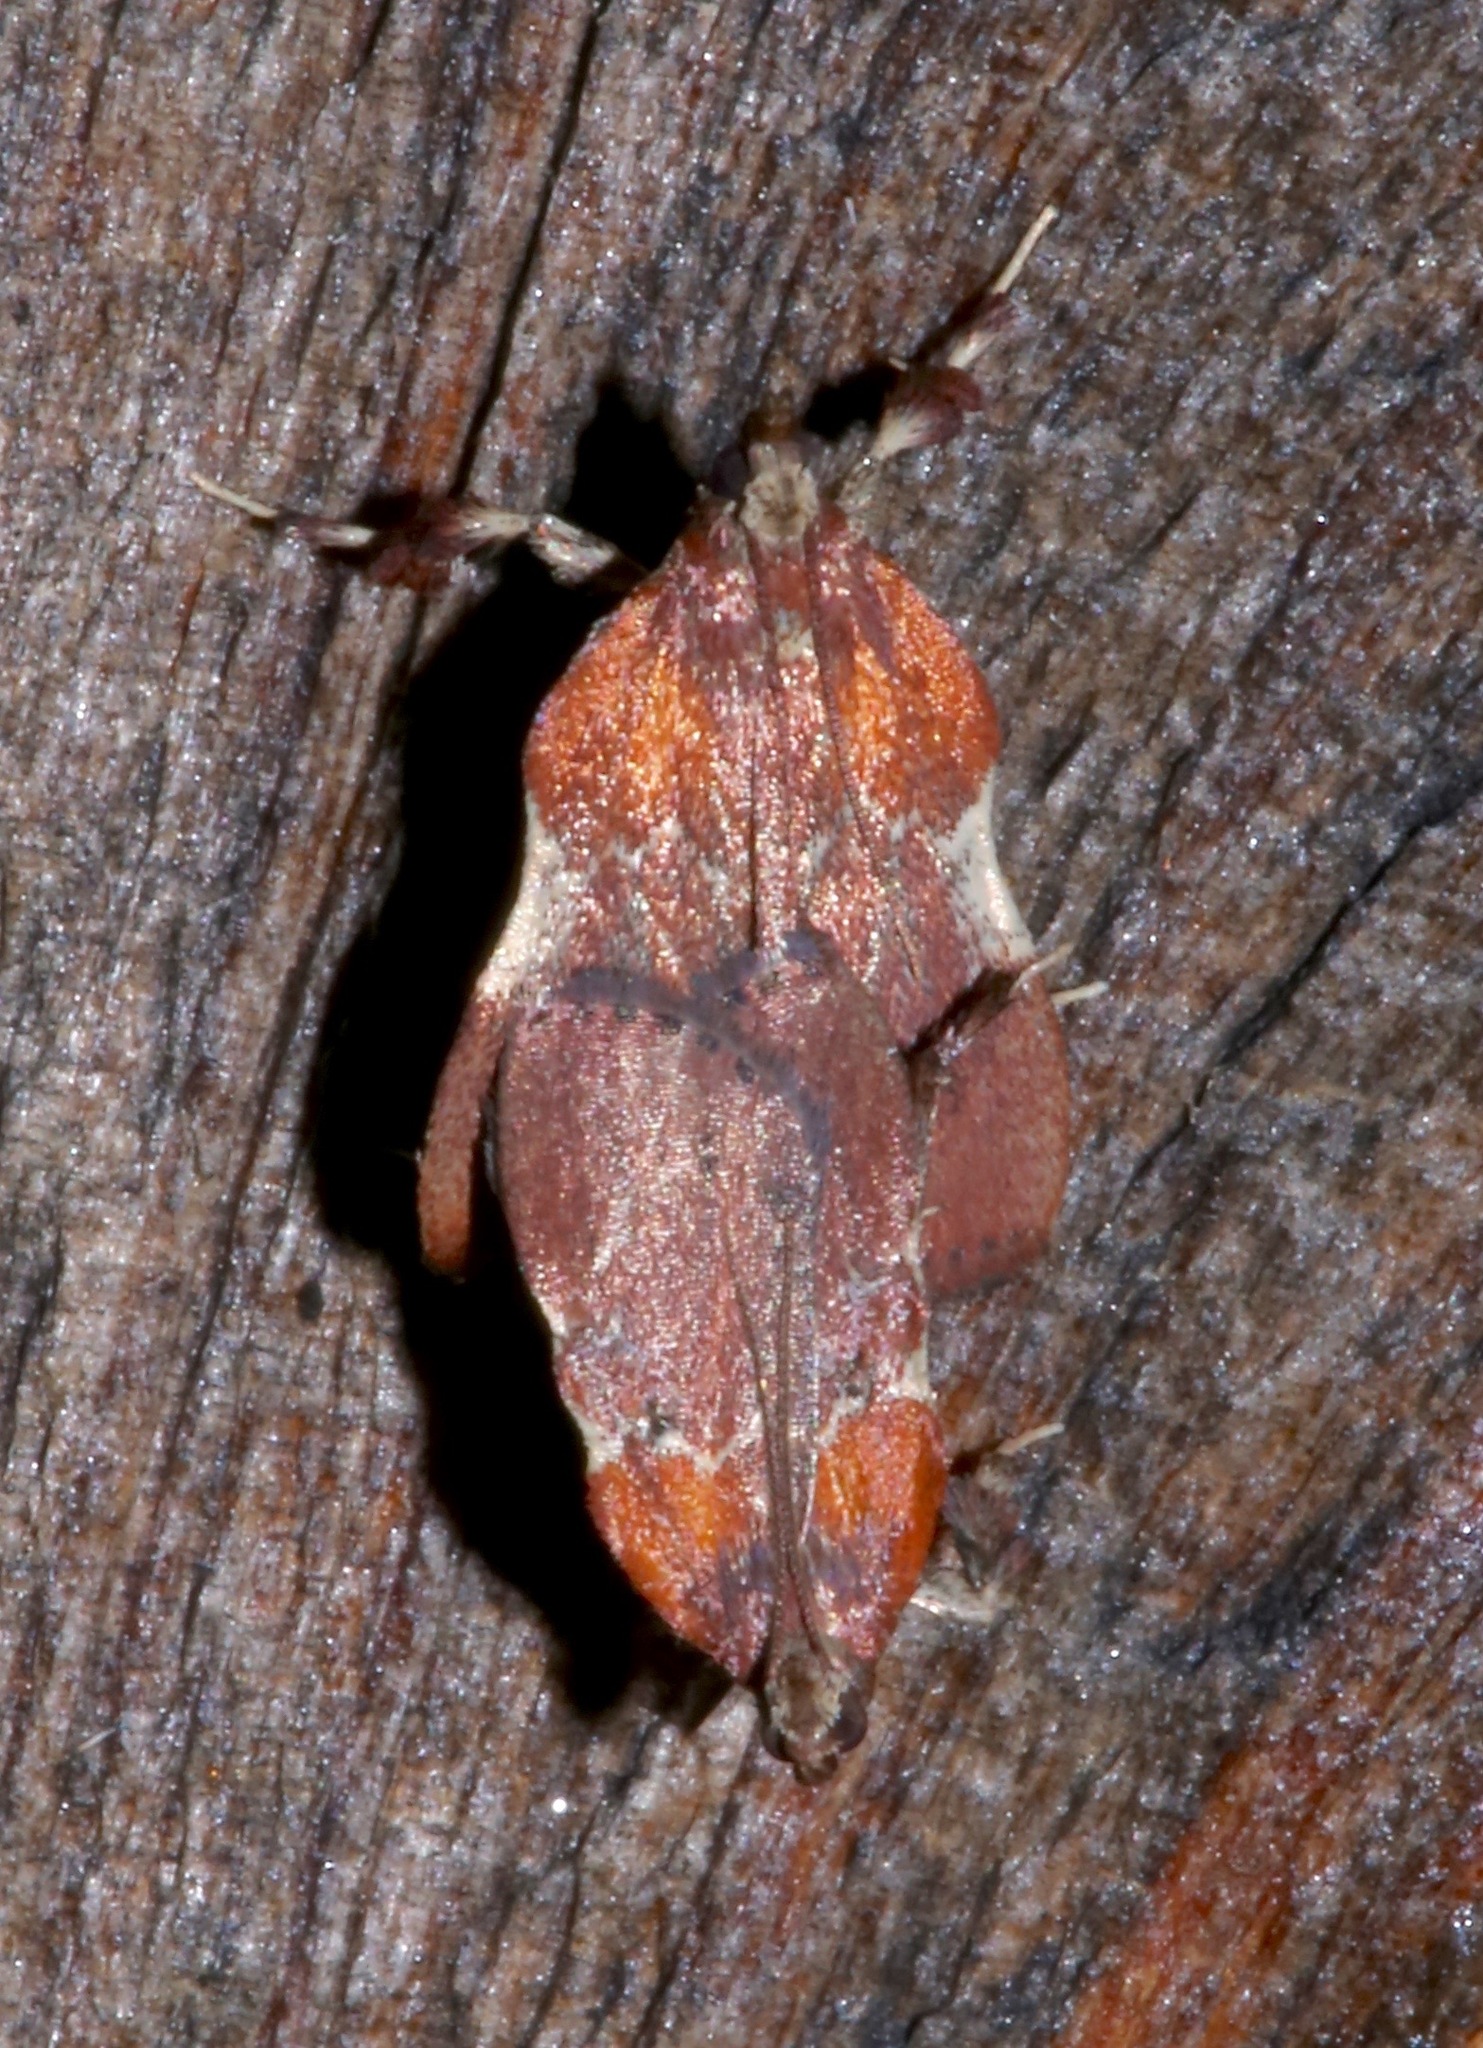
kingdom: Animalia
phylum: Arthropoda
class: Insecta
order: Lepidoptera
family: Pyralidae
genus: Galasa
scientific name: Galasa nigrinodis
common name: Boxwood leaftier moth
